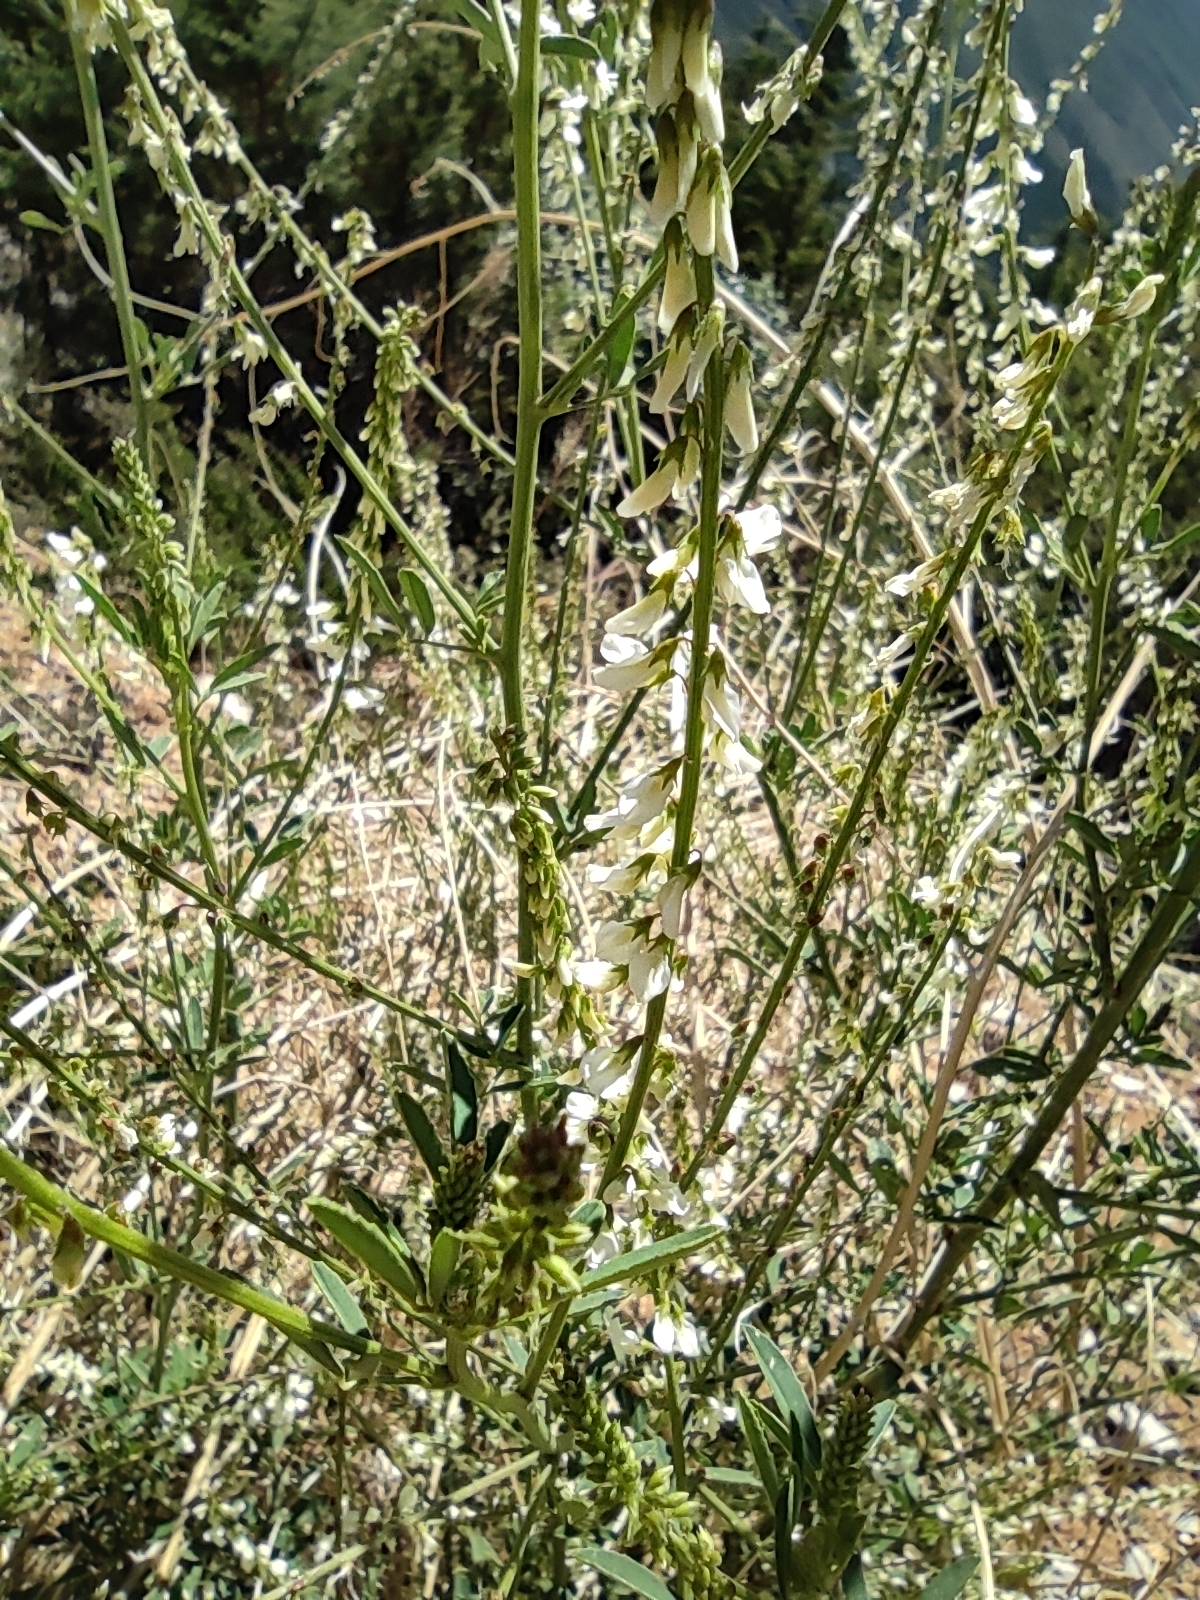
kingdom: Plantae
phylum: Tracheophyta
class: Magnoliopsida
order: Fabales
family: Fabaceae
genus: Melilotus
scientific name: Melilotus albus
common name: White melilot
